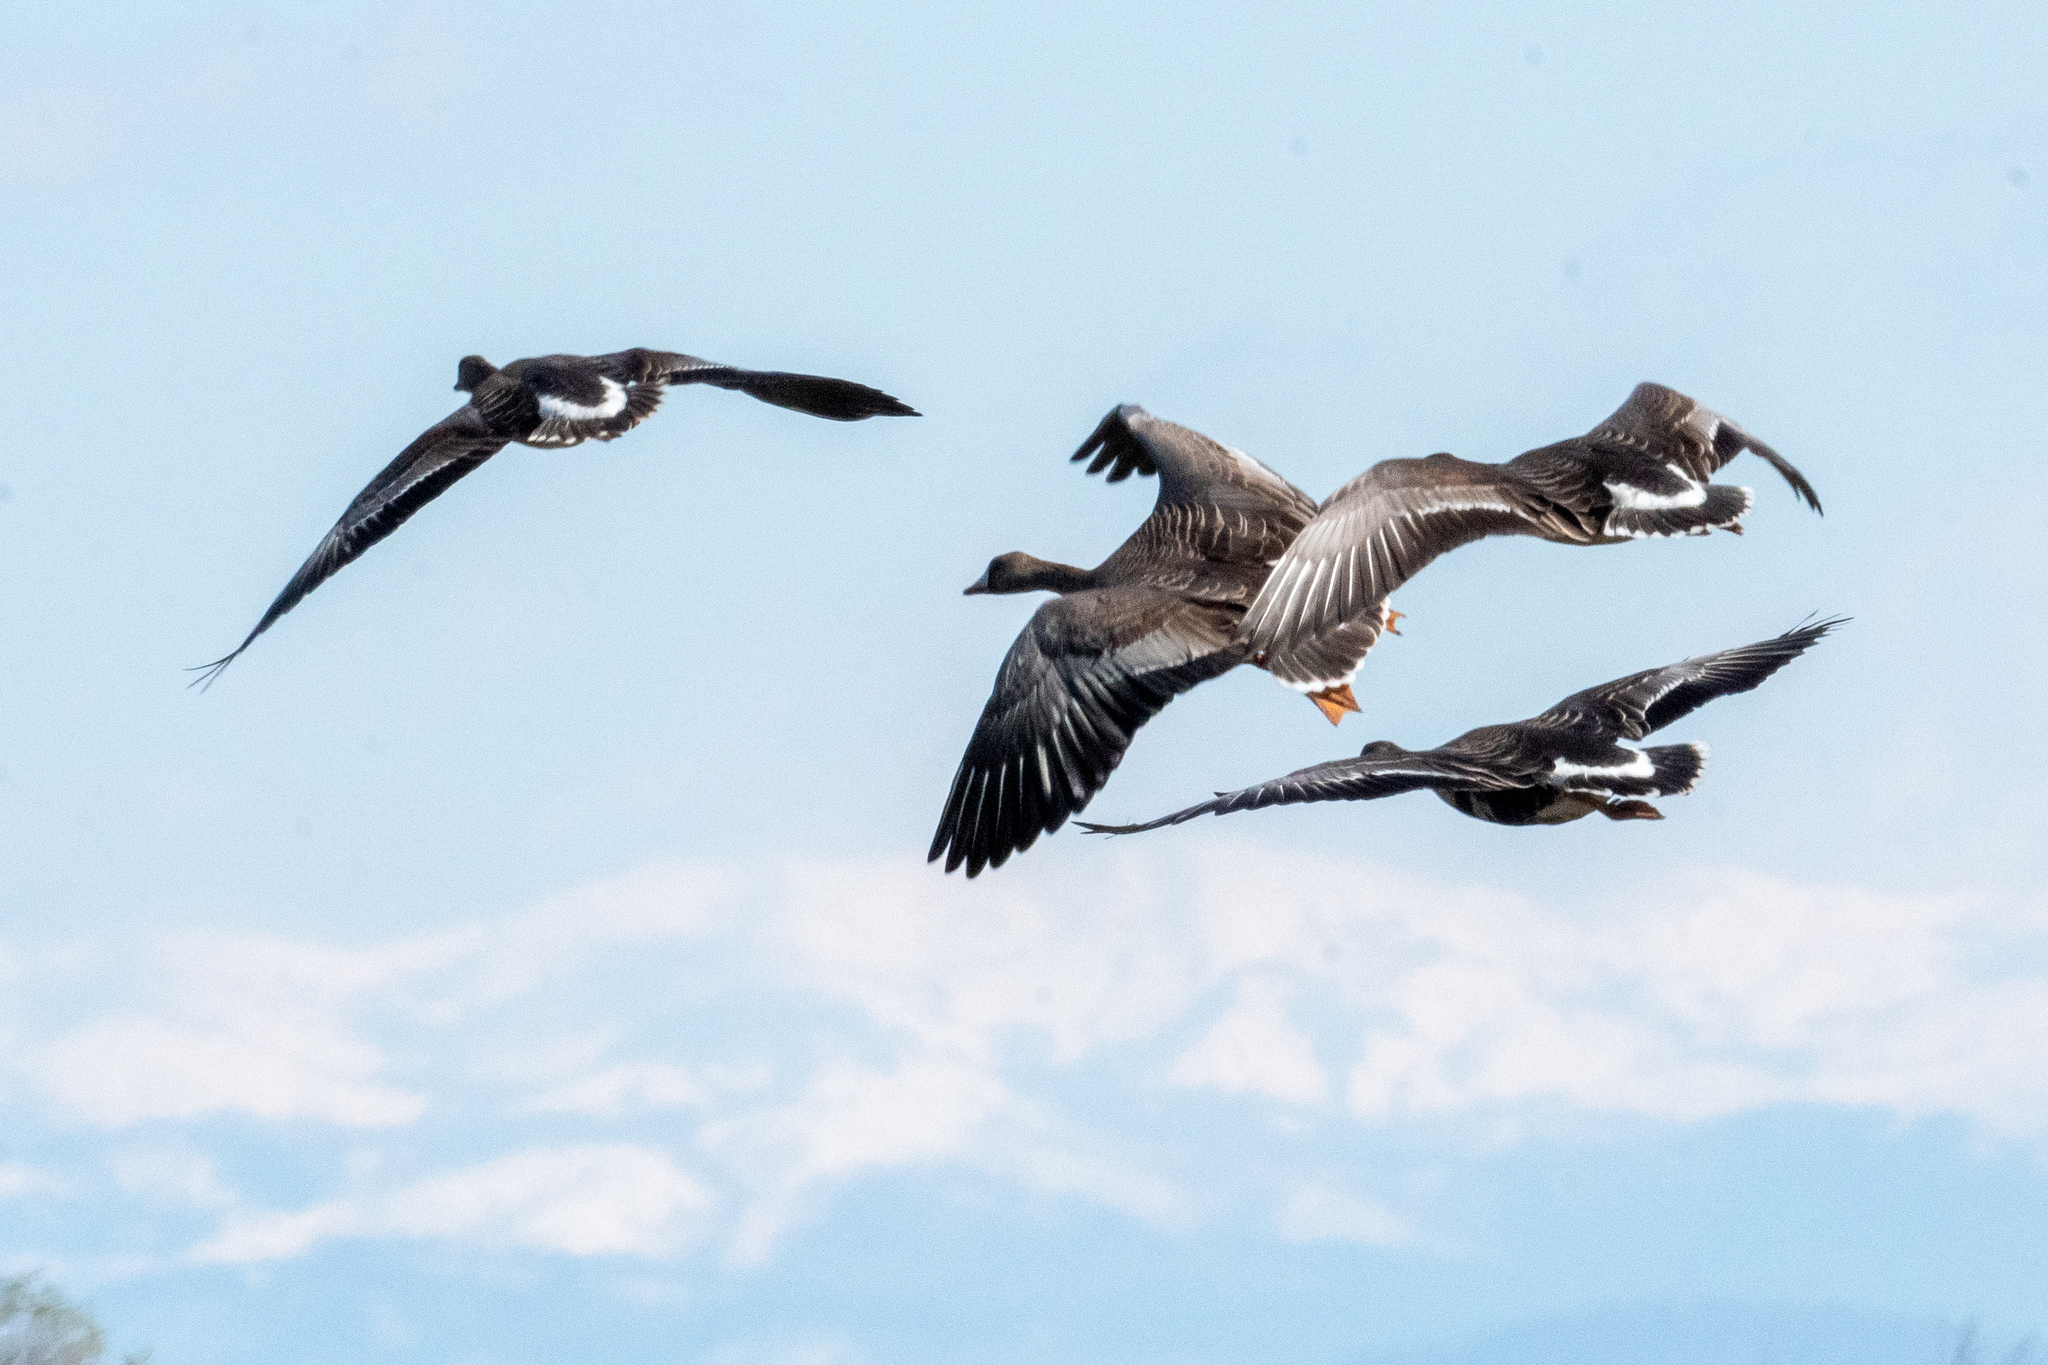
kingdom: Animalia
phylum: Chordata
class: Aves
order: Anseriformes
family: Anatidae
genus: Anser
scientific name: Anser albifrons
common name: Greater white-fronted goose
